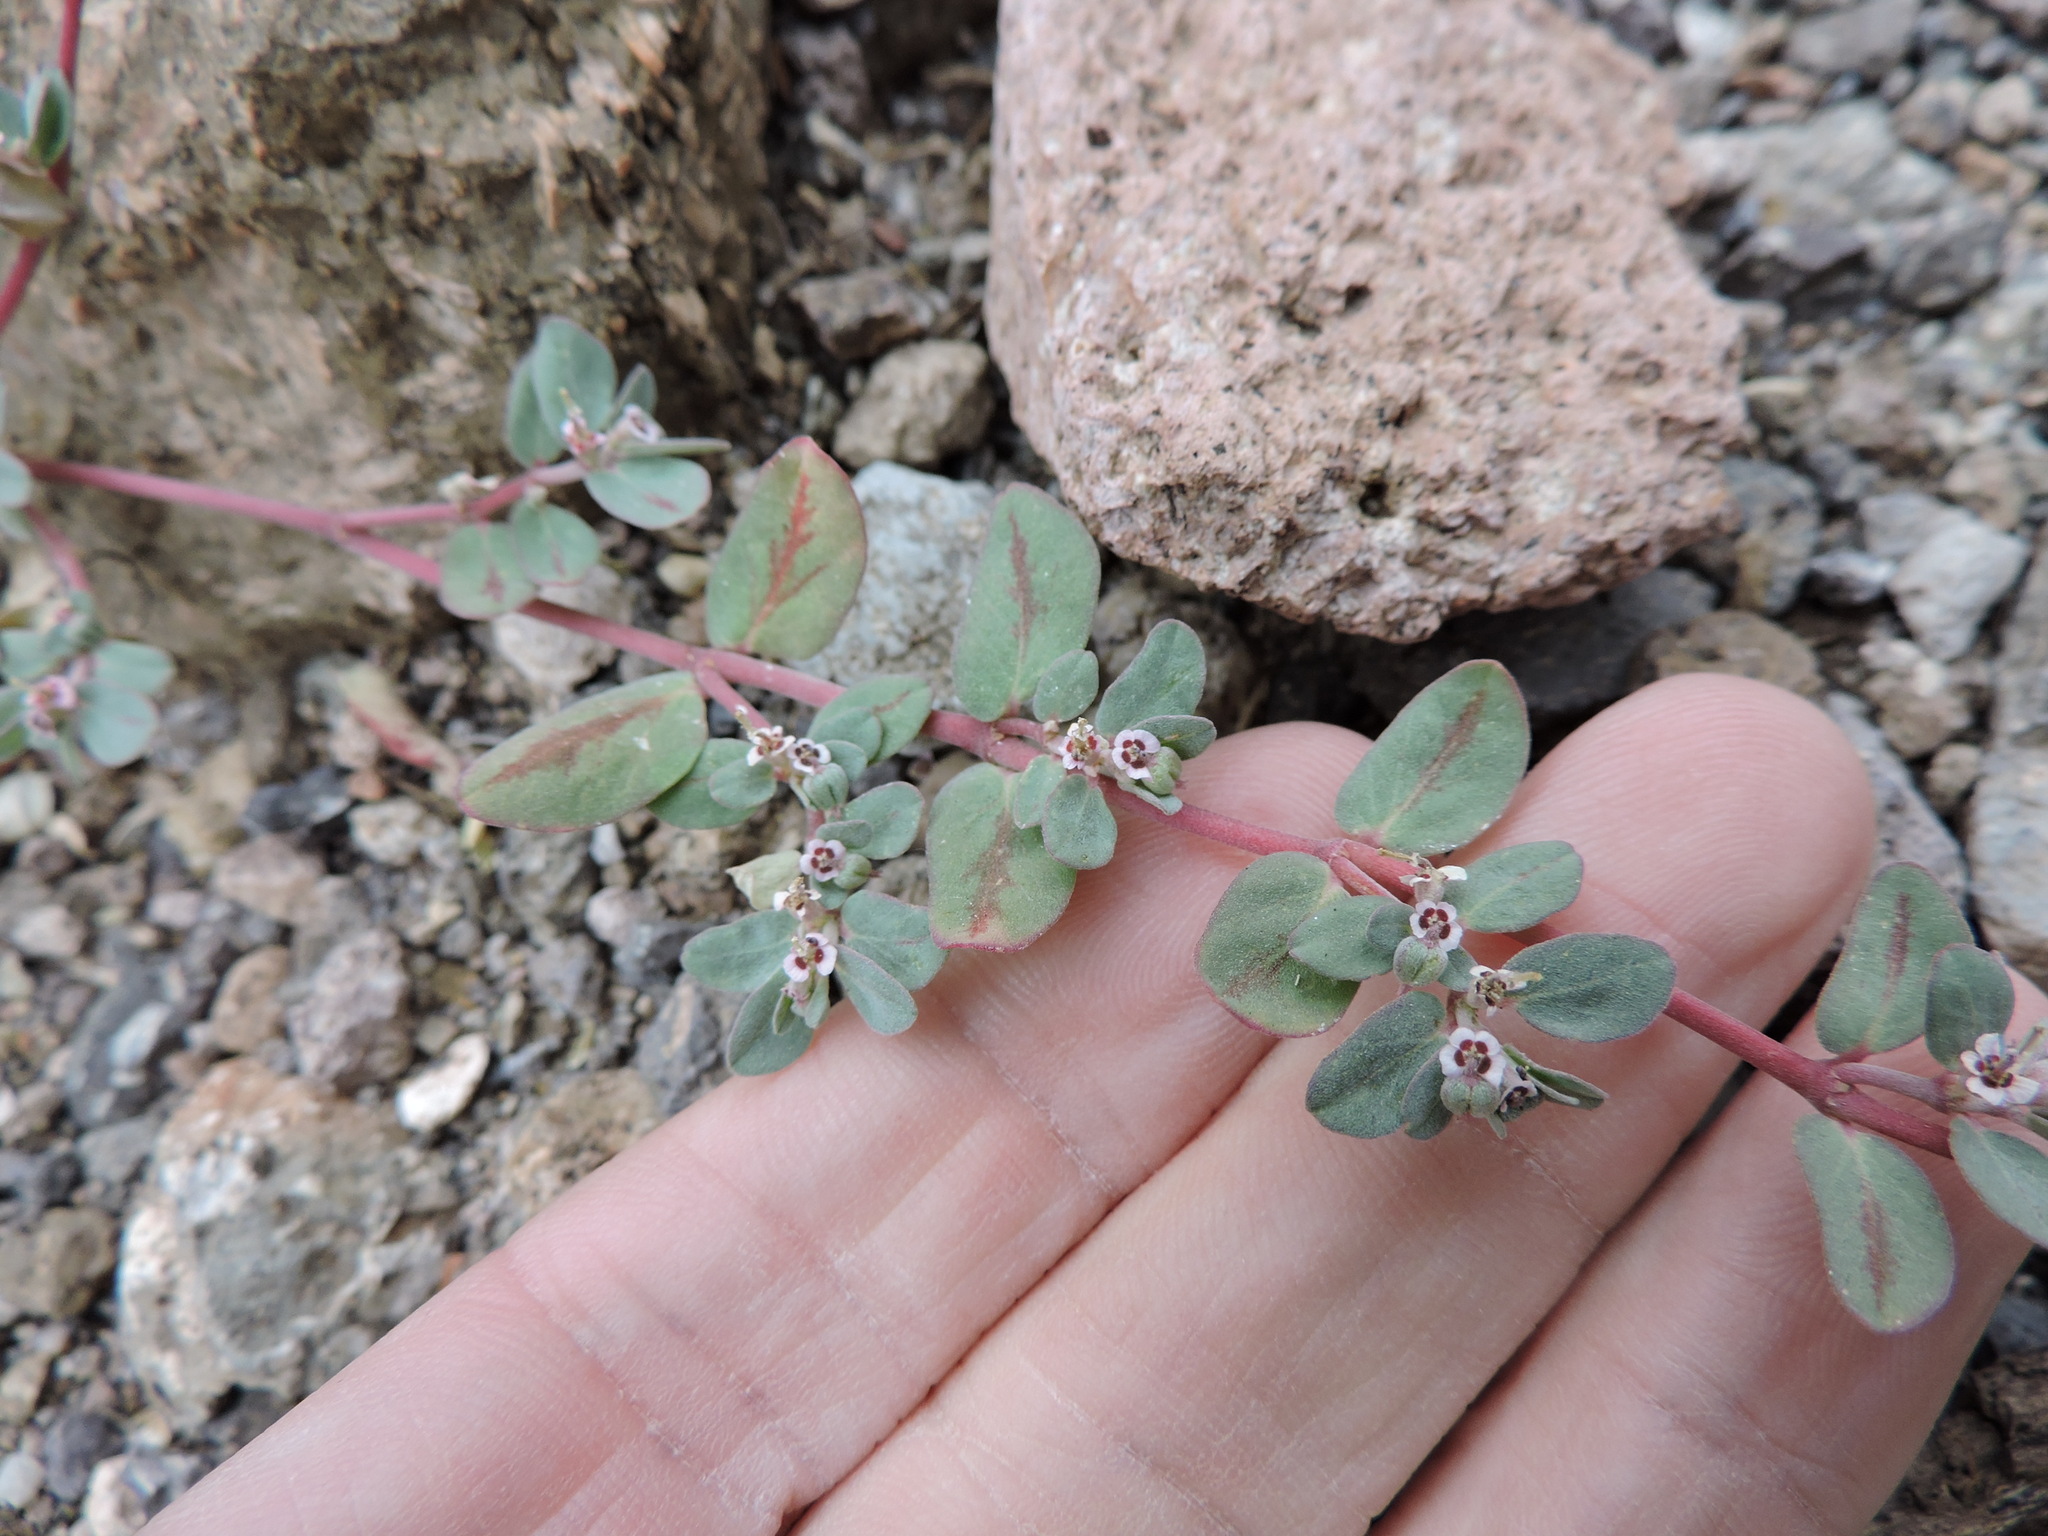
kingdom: Plantae
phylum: Tracheophyta
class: Magnoliopsida
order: Malpighiales
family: Euphorbiaceae
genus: Euphorbia
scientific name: Euphorbia pediculifera
